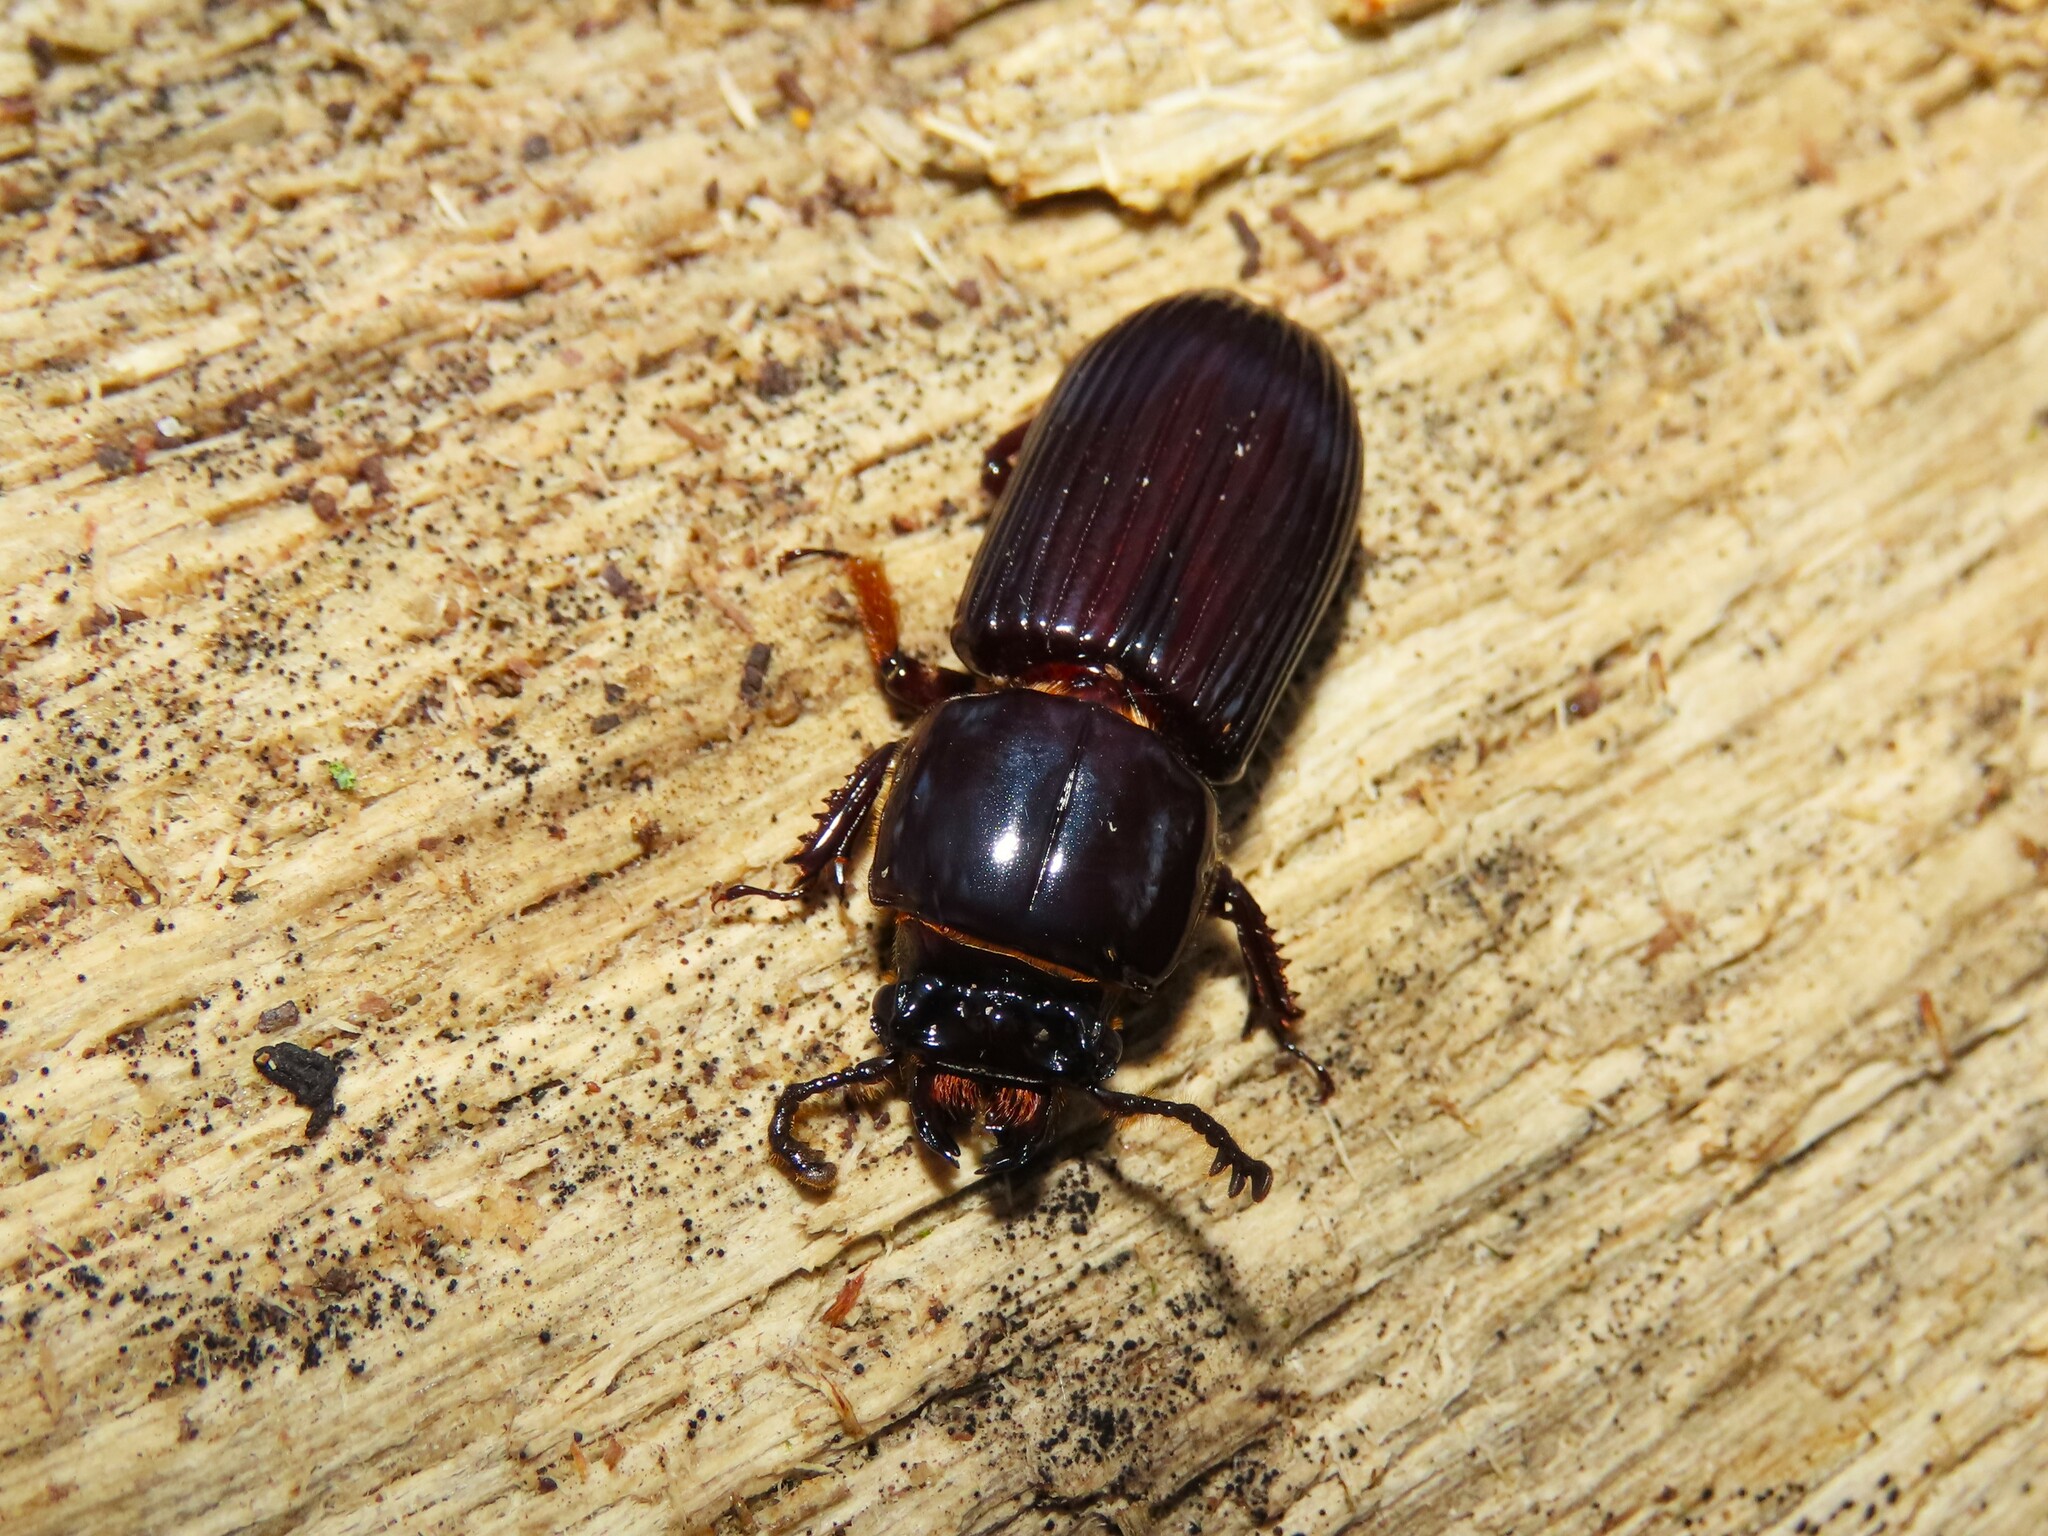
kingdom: Animalia
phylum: Arthropoda
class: Insecta
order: Coleoptera
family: Passalidae
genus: Odontotaenius
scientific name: Odontotaenius disjunctus
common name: Patent leather beetle
